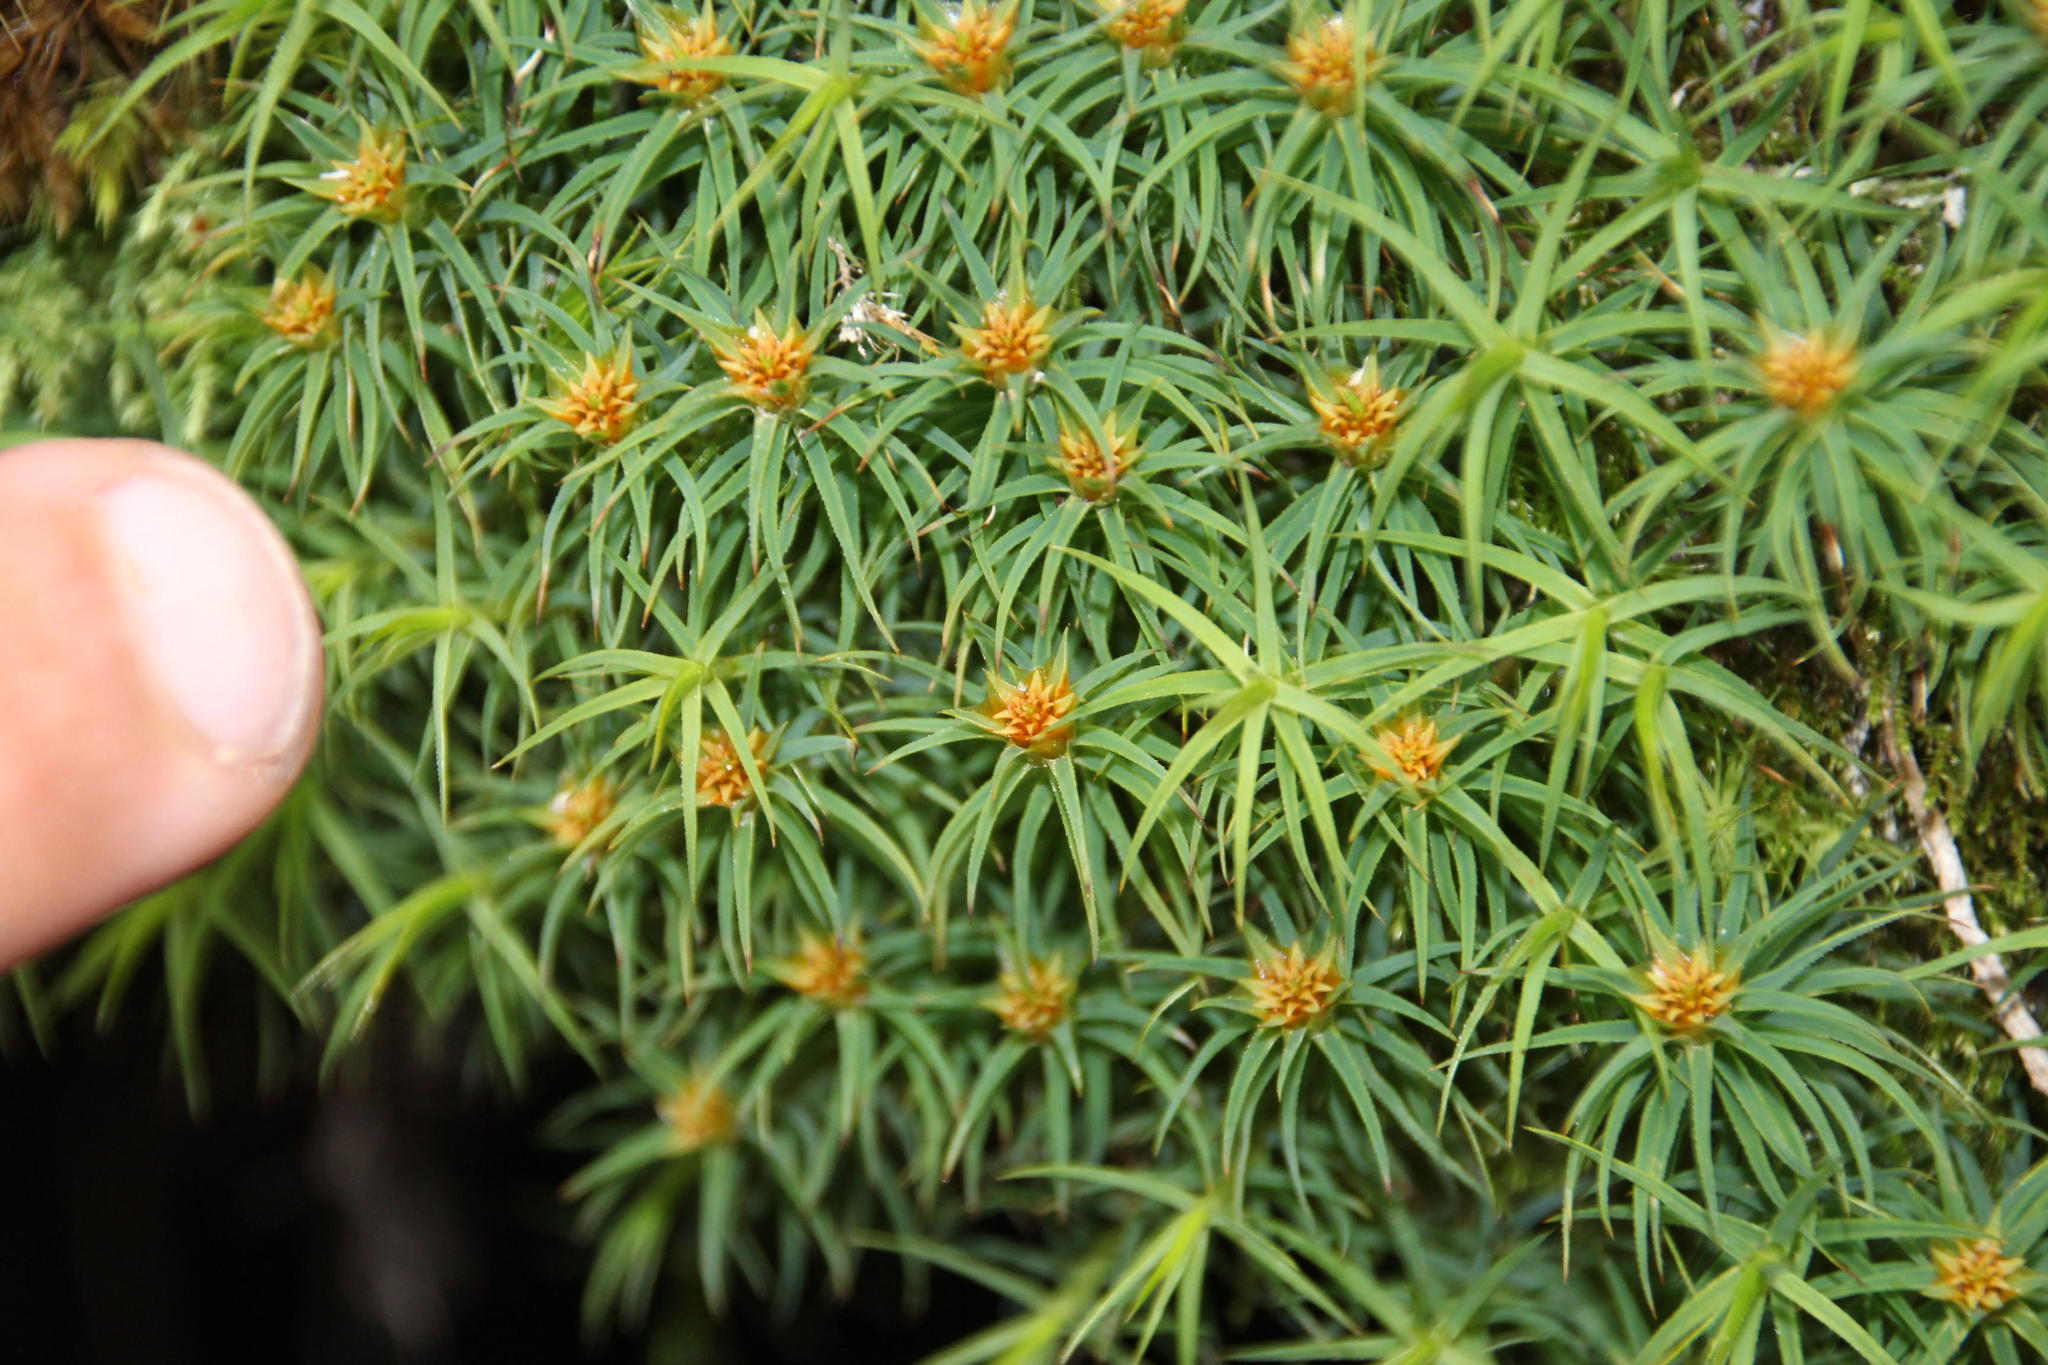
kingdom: Plantae
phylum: Bryophyta
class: Polytrichopsida
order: Polytrichales
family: Polytrichaceae
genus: Polytrichadelphus
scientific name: Polytrichadelphus magellanicus
